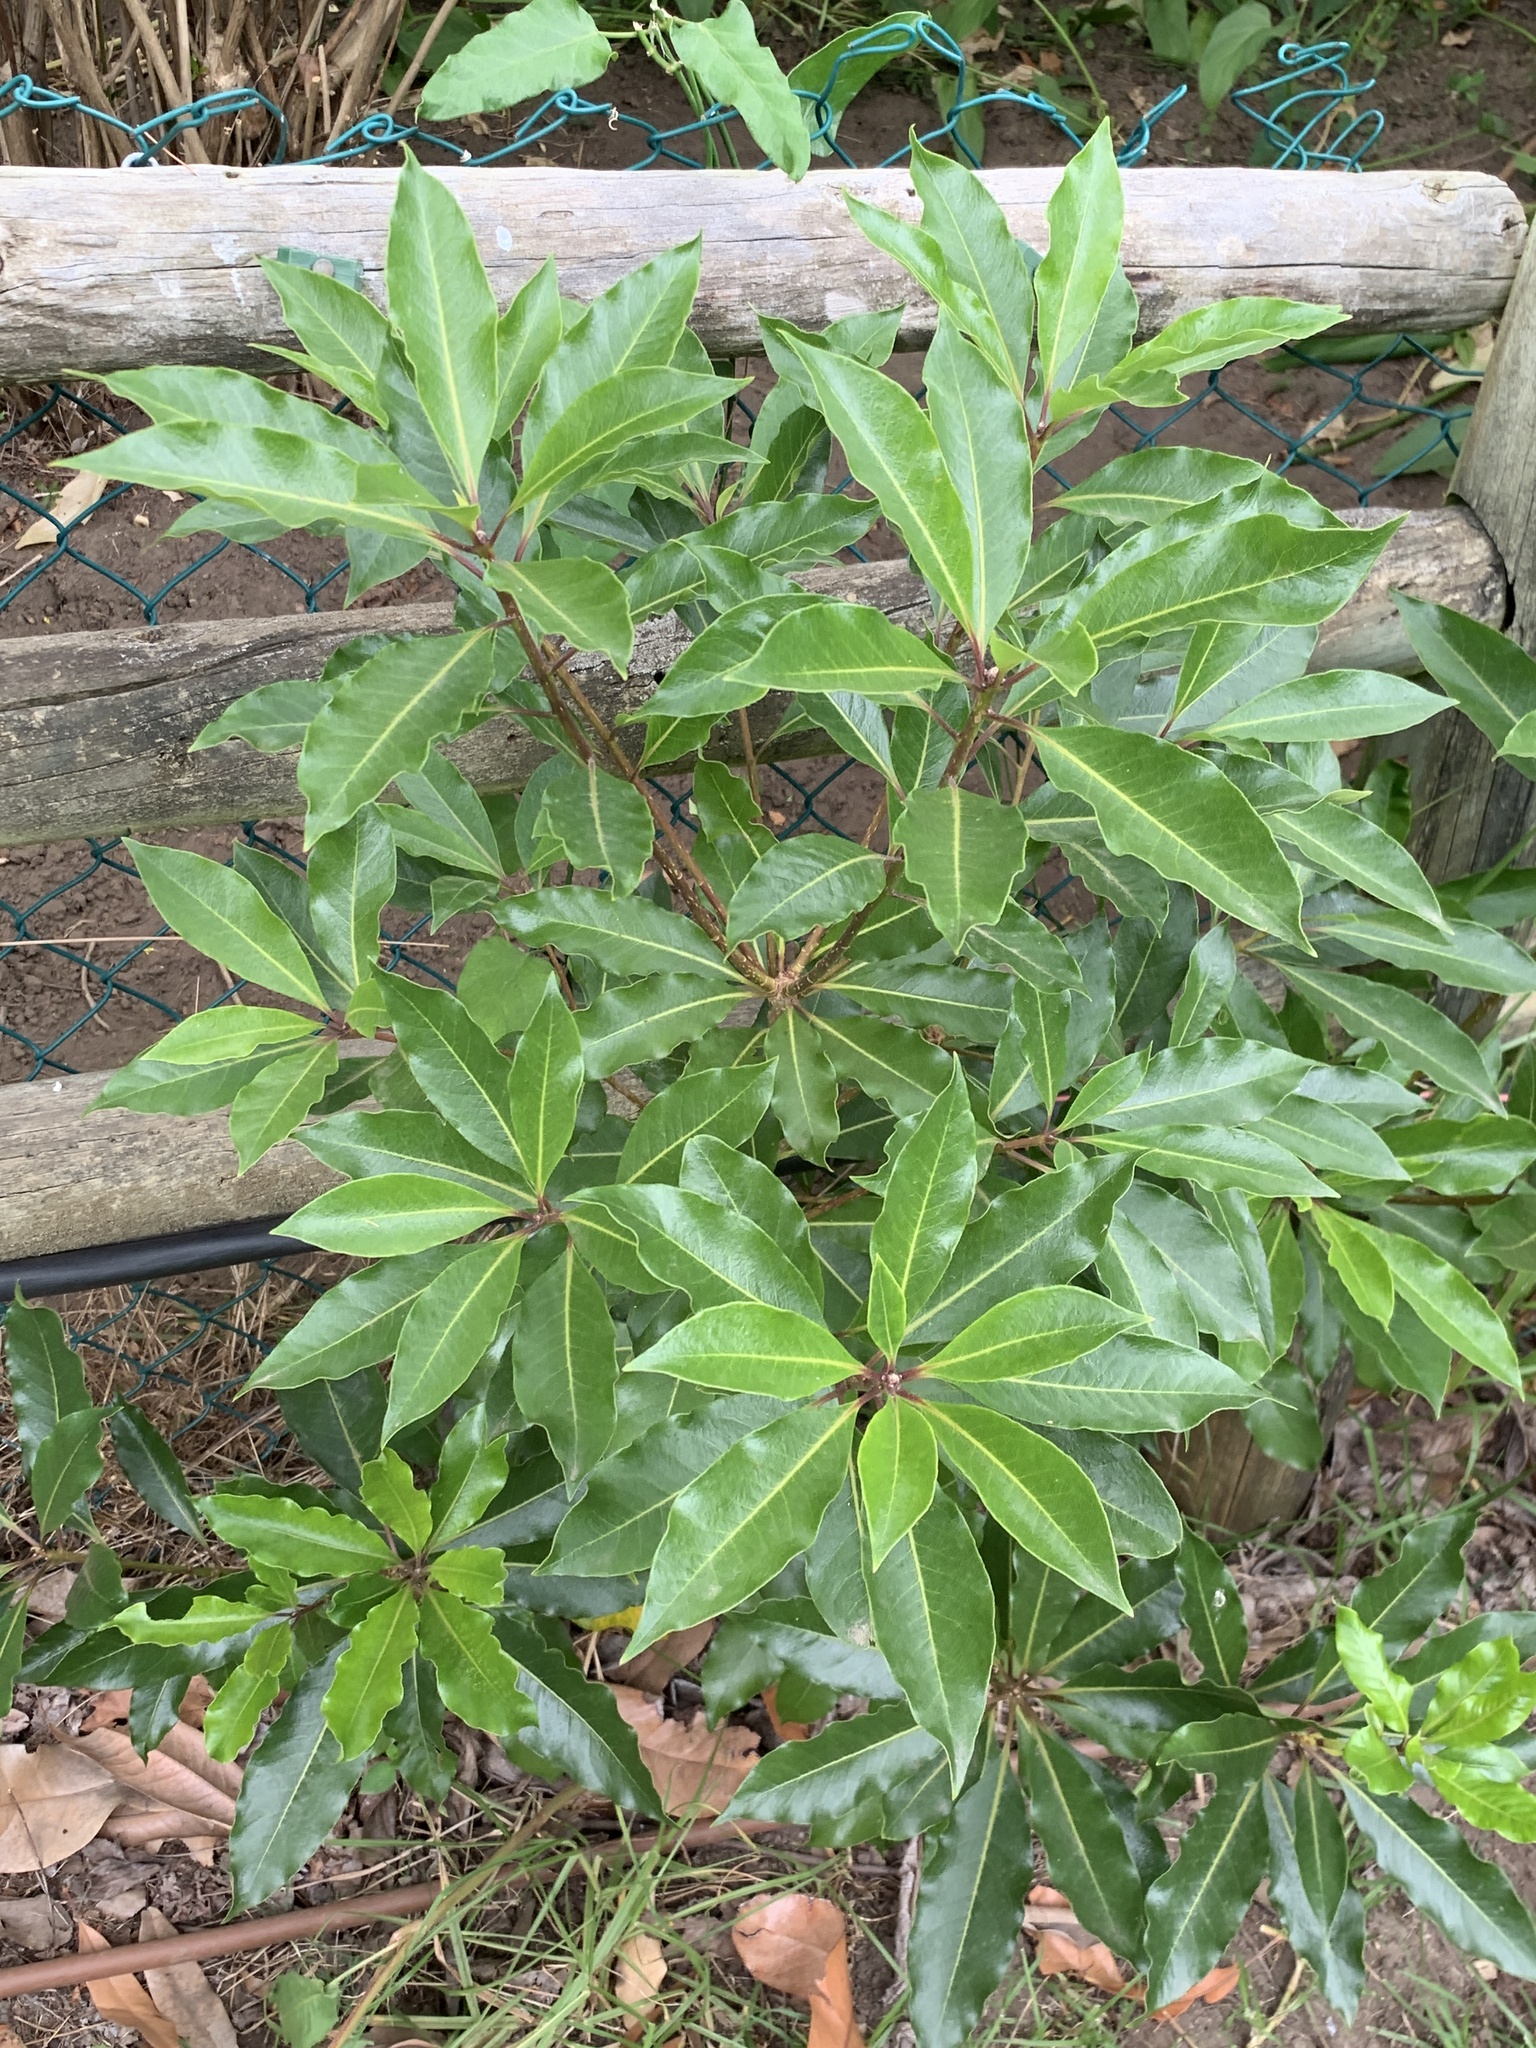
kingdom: Plantae
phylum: Tracheophyta
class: Magnoliopsida
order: Apiales
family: Pittosporaceae
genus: Pittosporum
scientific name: Pittosporum undulatum
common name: Australian cheesewood
